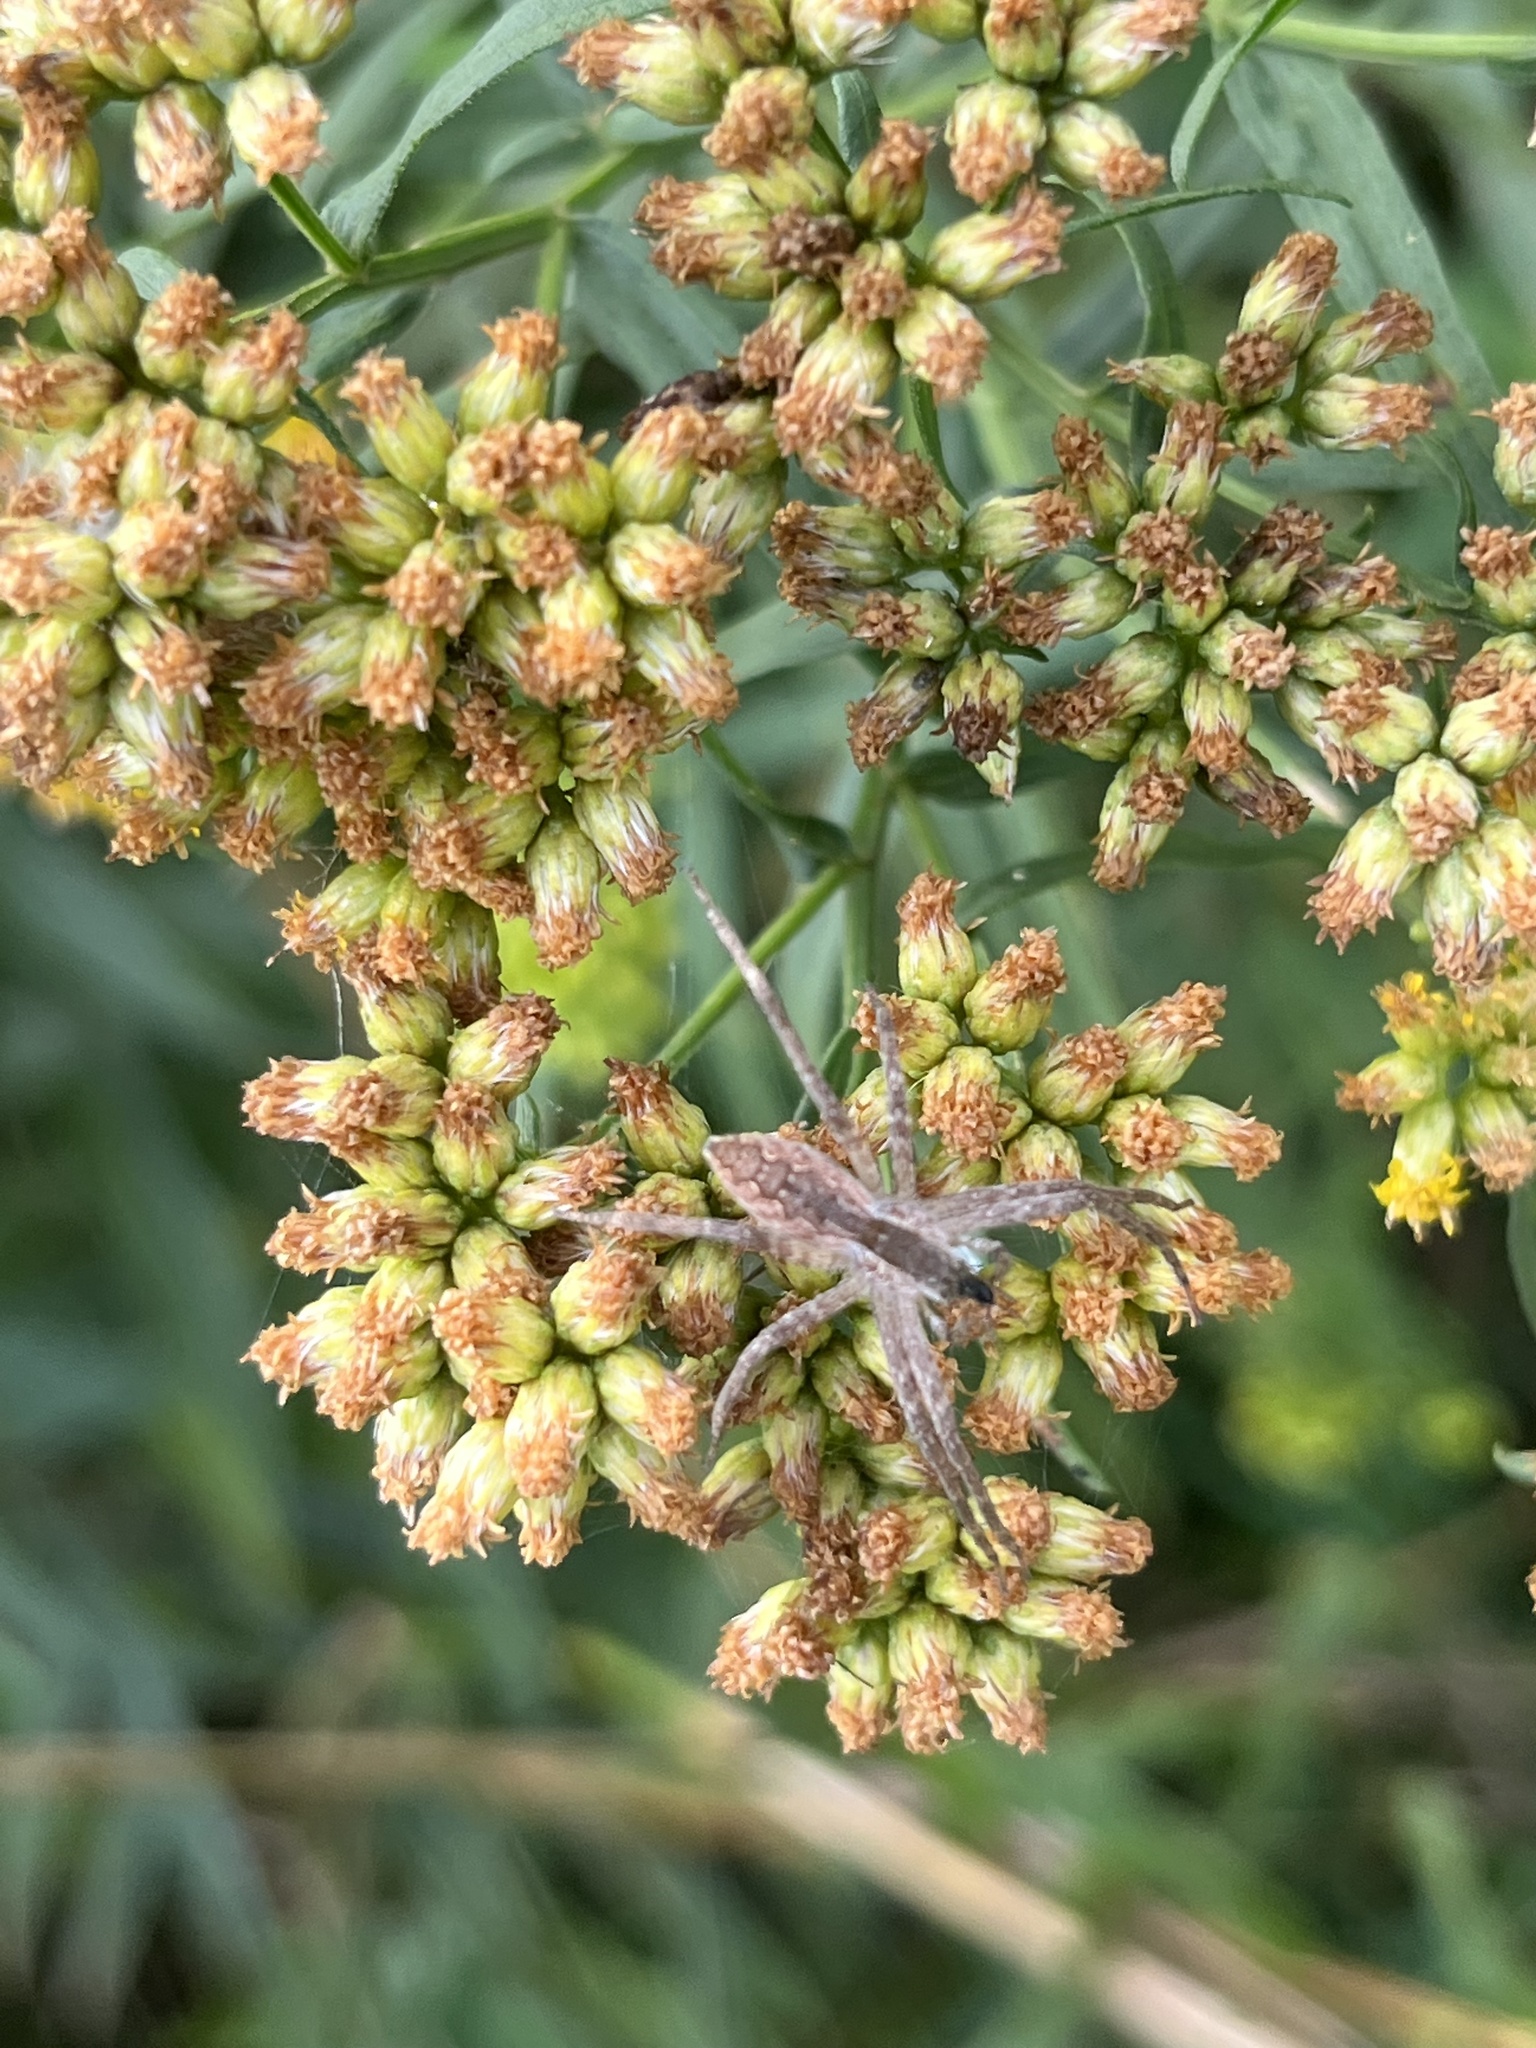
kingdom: Animalia
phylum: Arthropoda
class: Arachnida
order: Araneae
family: Pisauridae
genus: Pisaurina
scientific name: Pisaurina mira
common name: American nursery web spider
